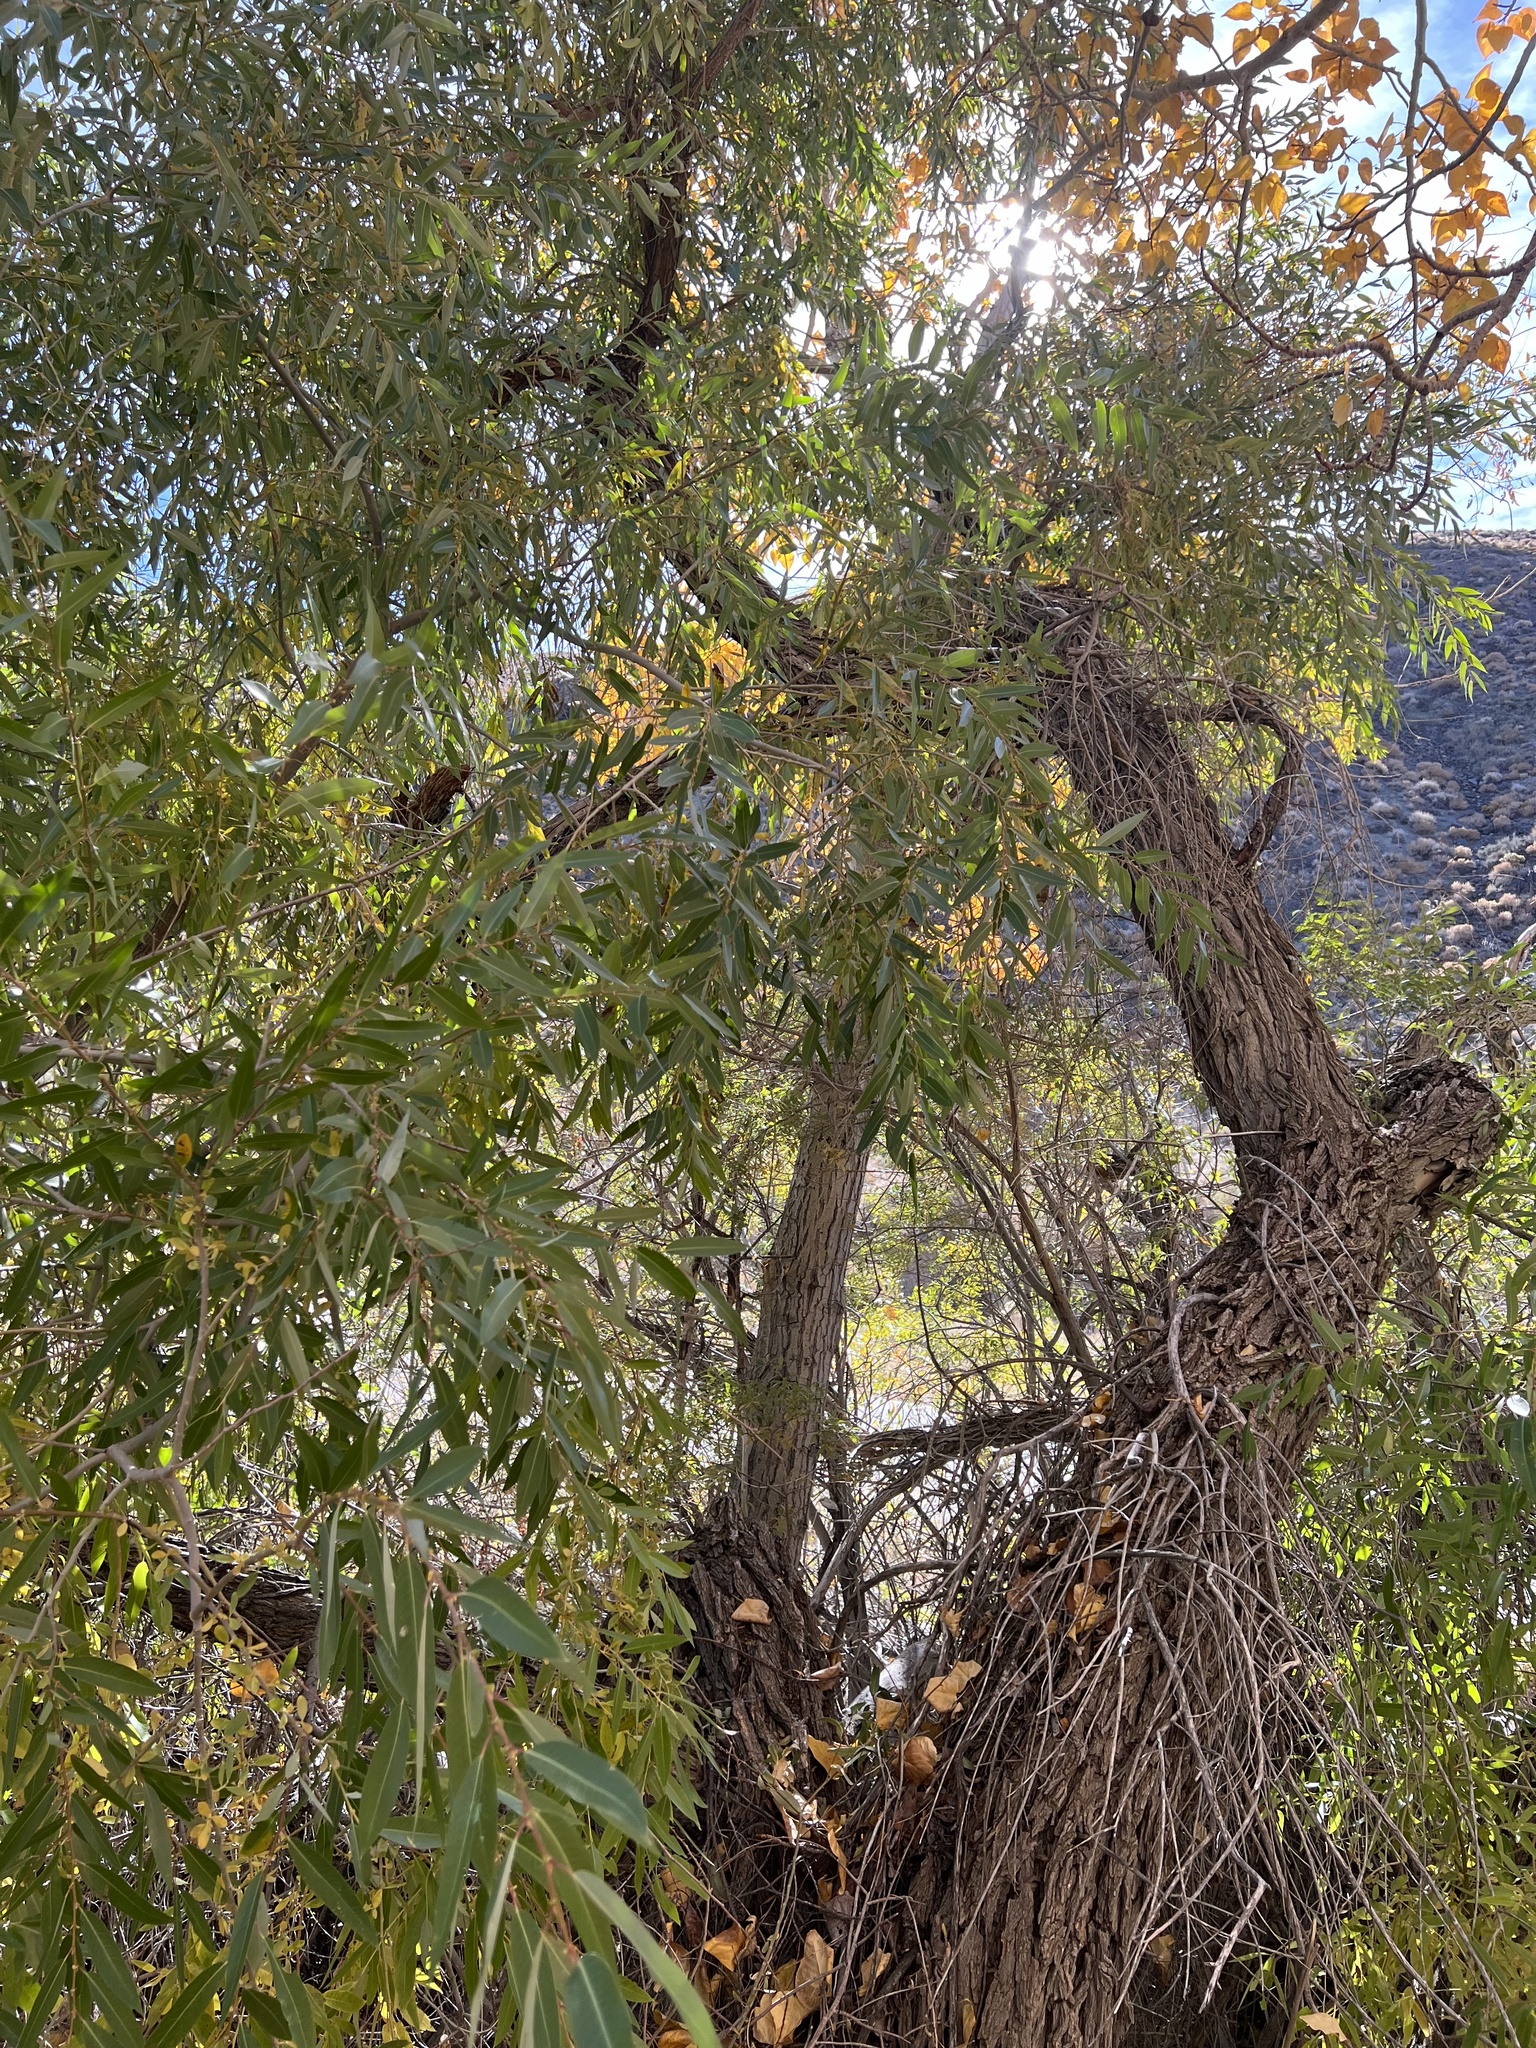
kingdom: Plantae
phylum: Tracheophyta
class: Magnoliopsida
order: Malpighiales
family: Salicaceae
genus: Salix
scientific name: Salix laevigata
